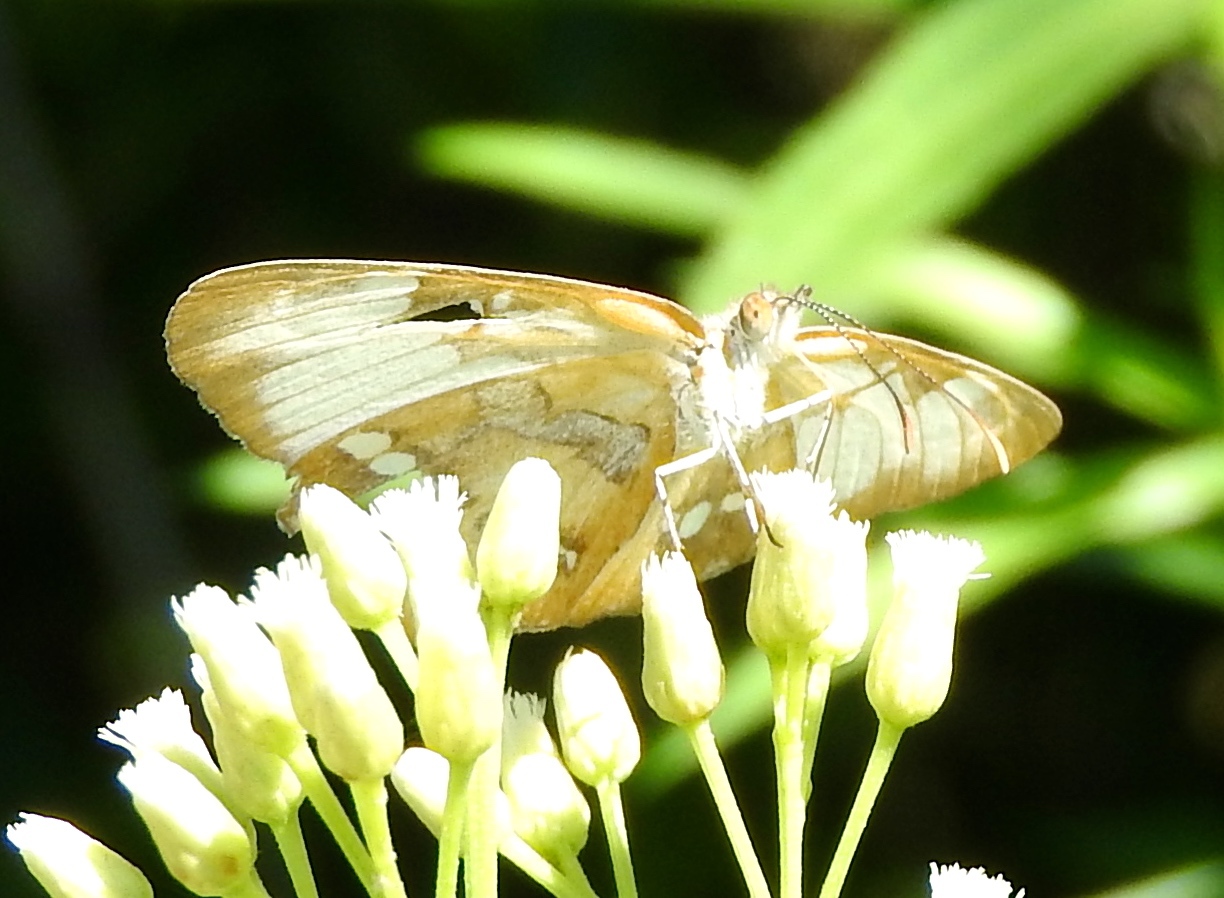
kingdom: Animalia
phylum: Arthropoda
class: Insecta
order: Lepidoptera
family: Nymphalidae
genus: Mestra
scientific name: Mestra amymone
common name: Common mestra
